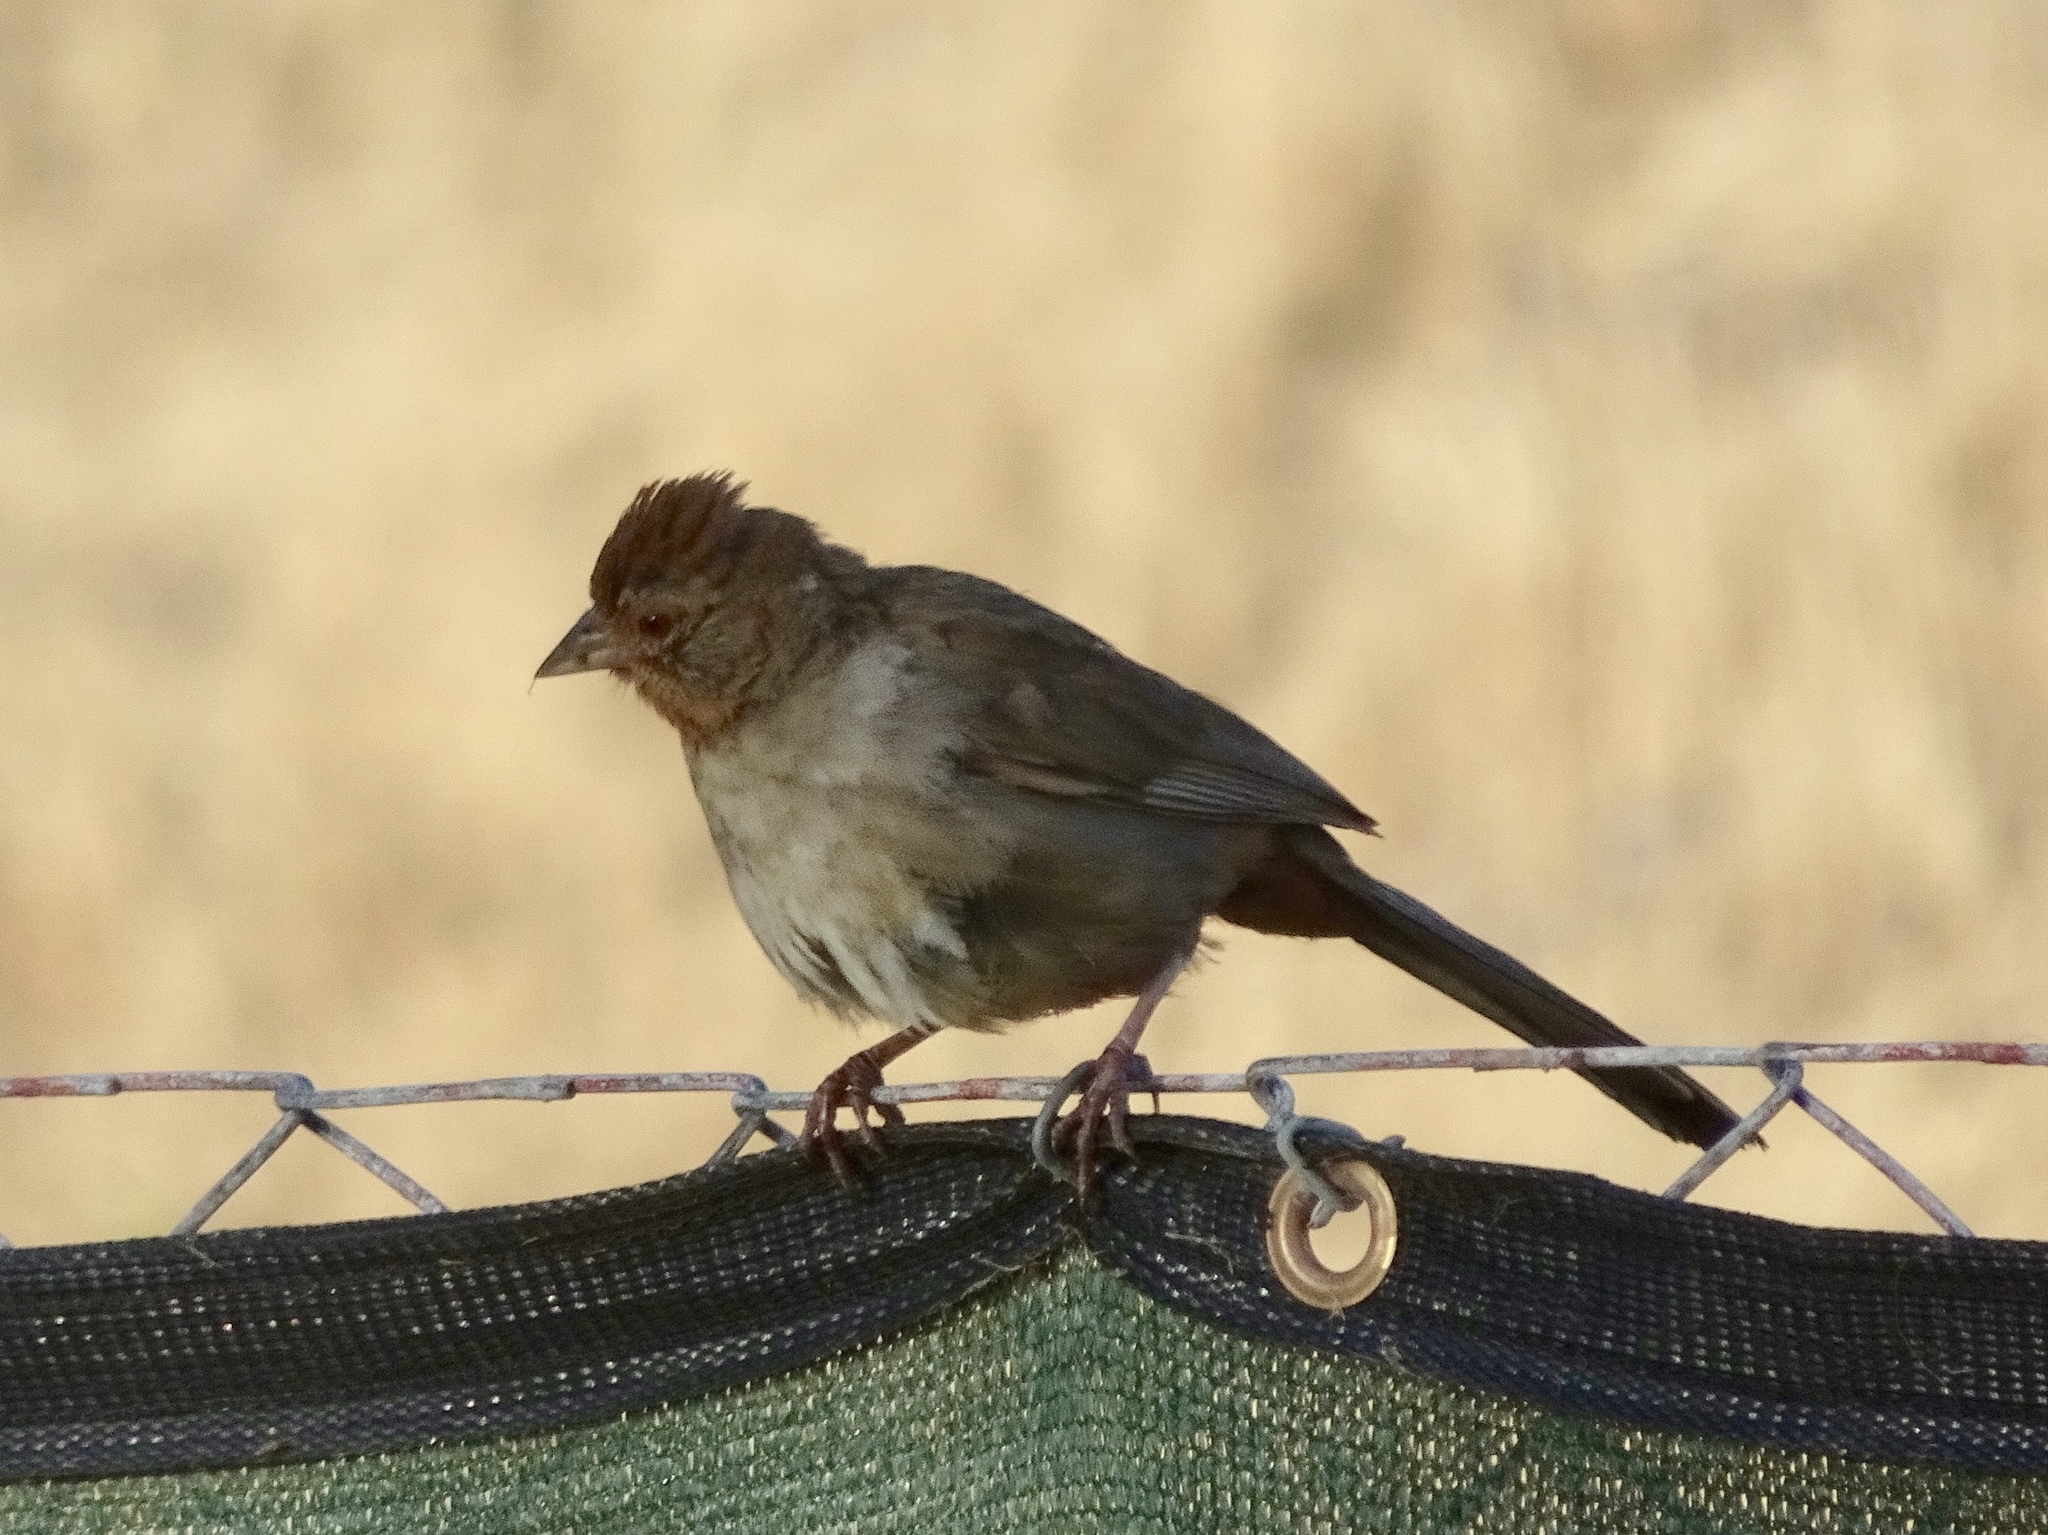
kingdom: Animalia
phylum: Chordata
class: Aves
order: Passeriformes
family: Passerellidae
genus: Melozone
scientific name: Melozone crissalis
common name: California towhee
